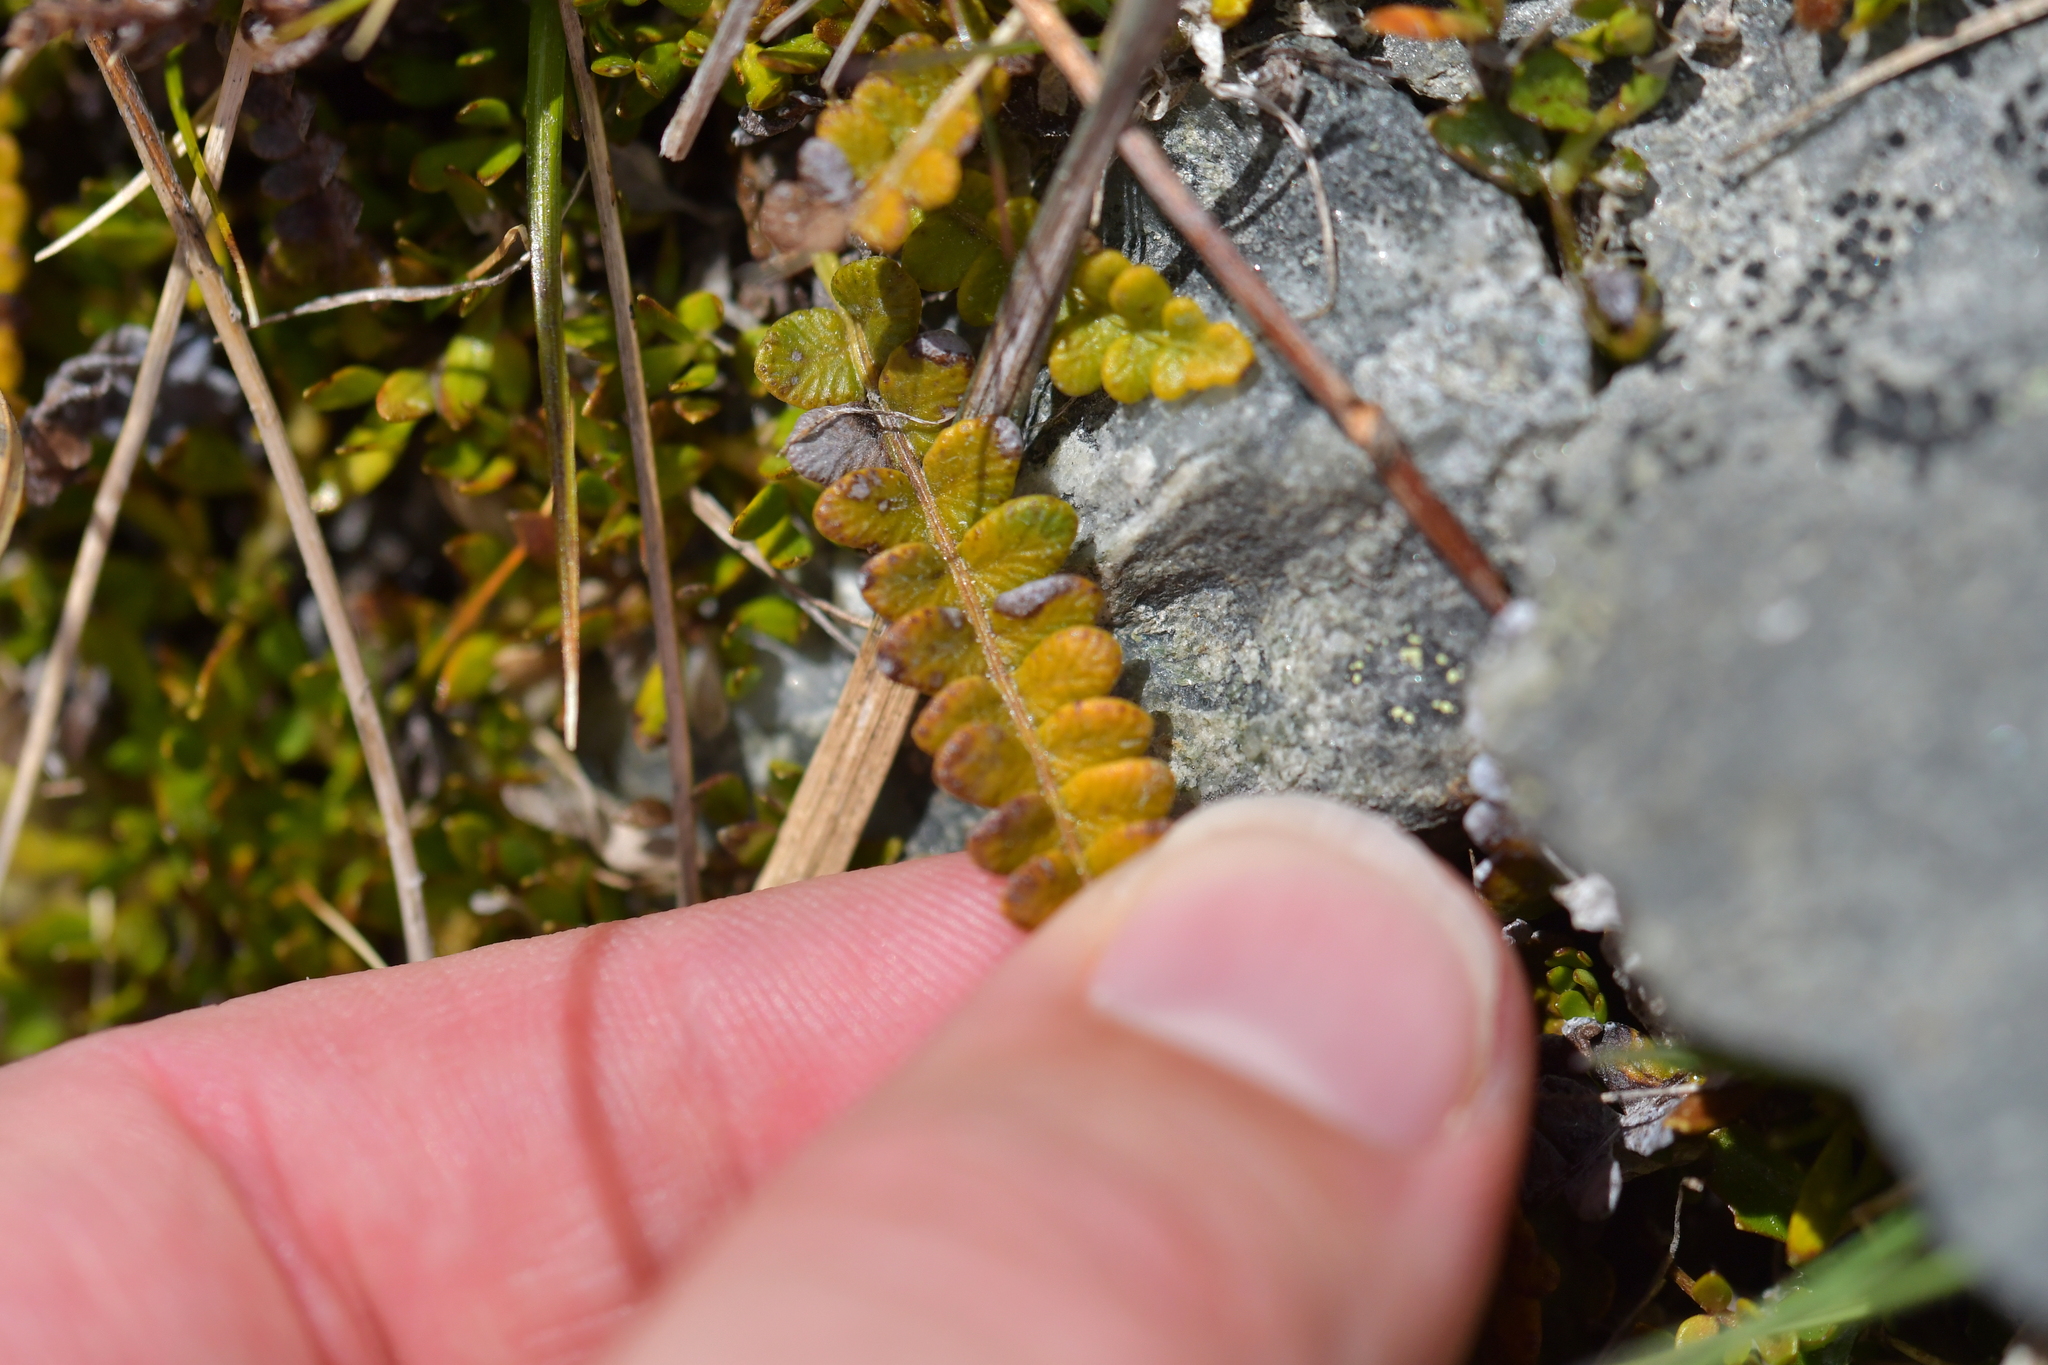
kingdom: Plantae
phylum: Tracheophyta
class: Polypodiopsida
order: Polypodiales
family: Blechnaceae
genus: Austroblechnum
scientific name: Austroblechnum penna-marina
